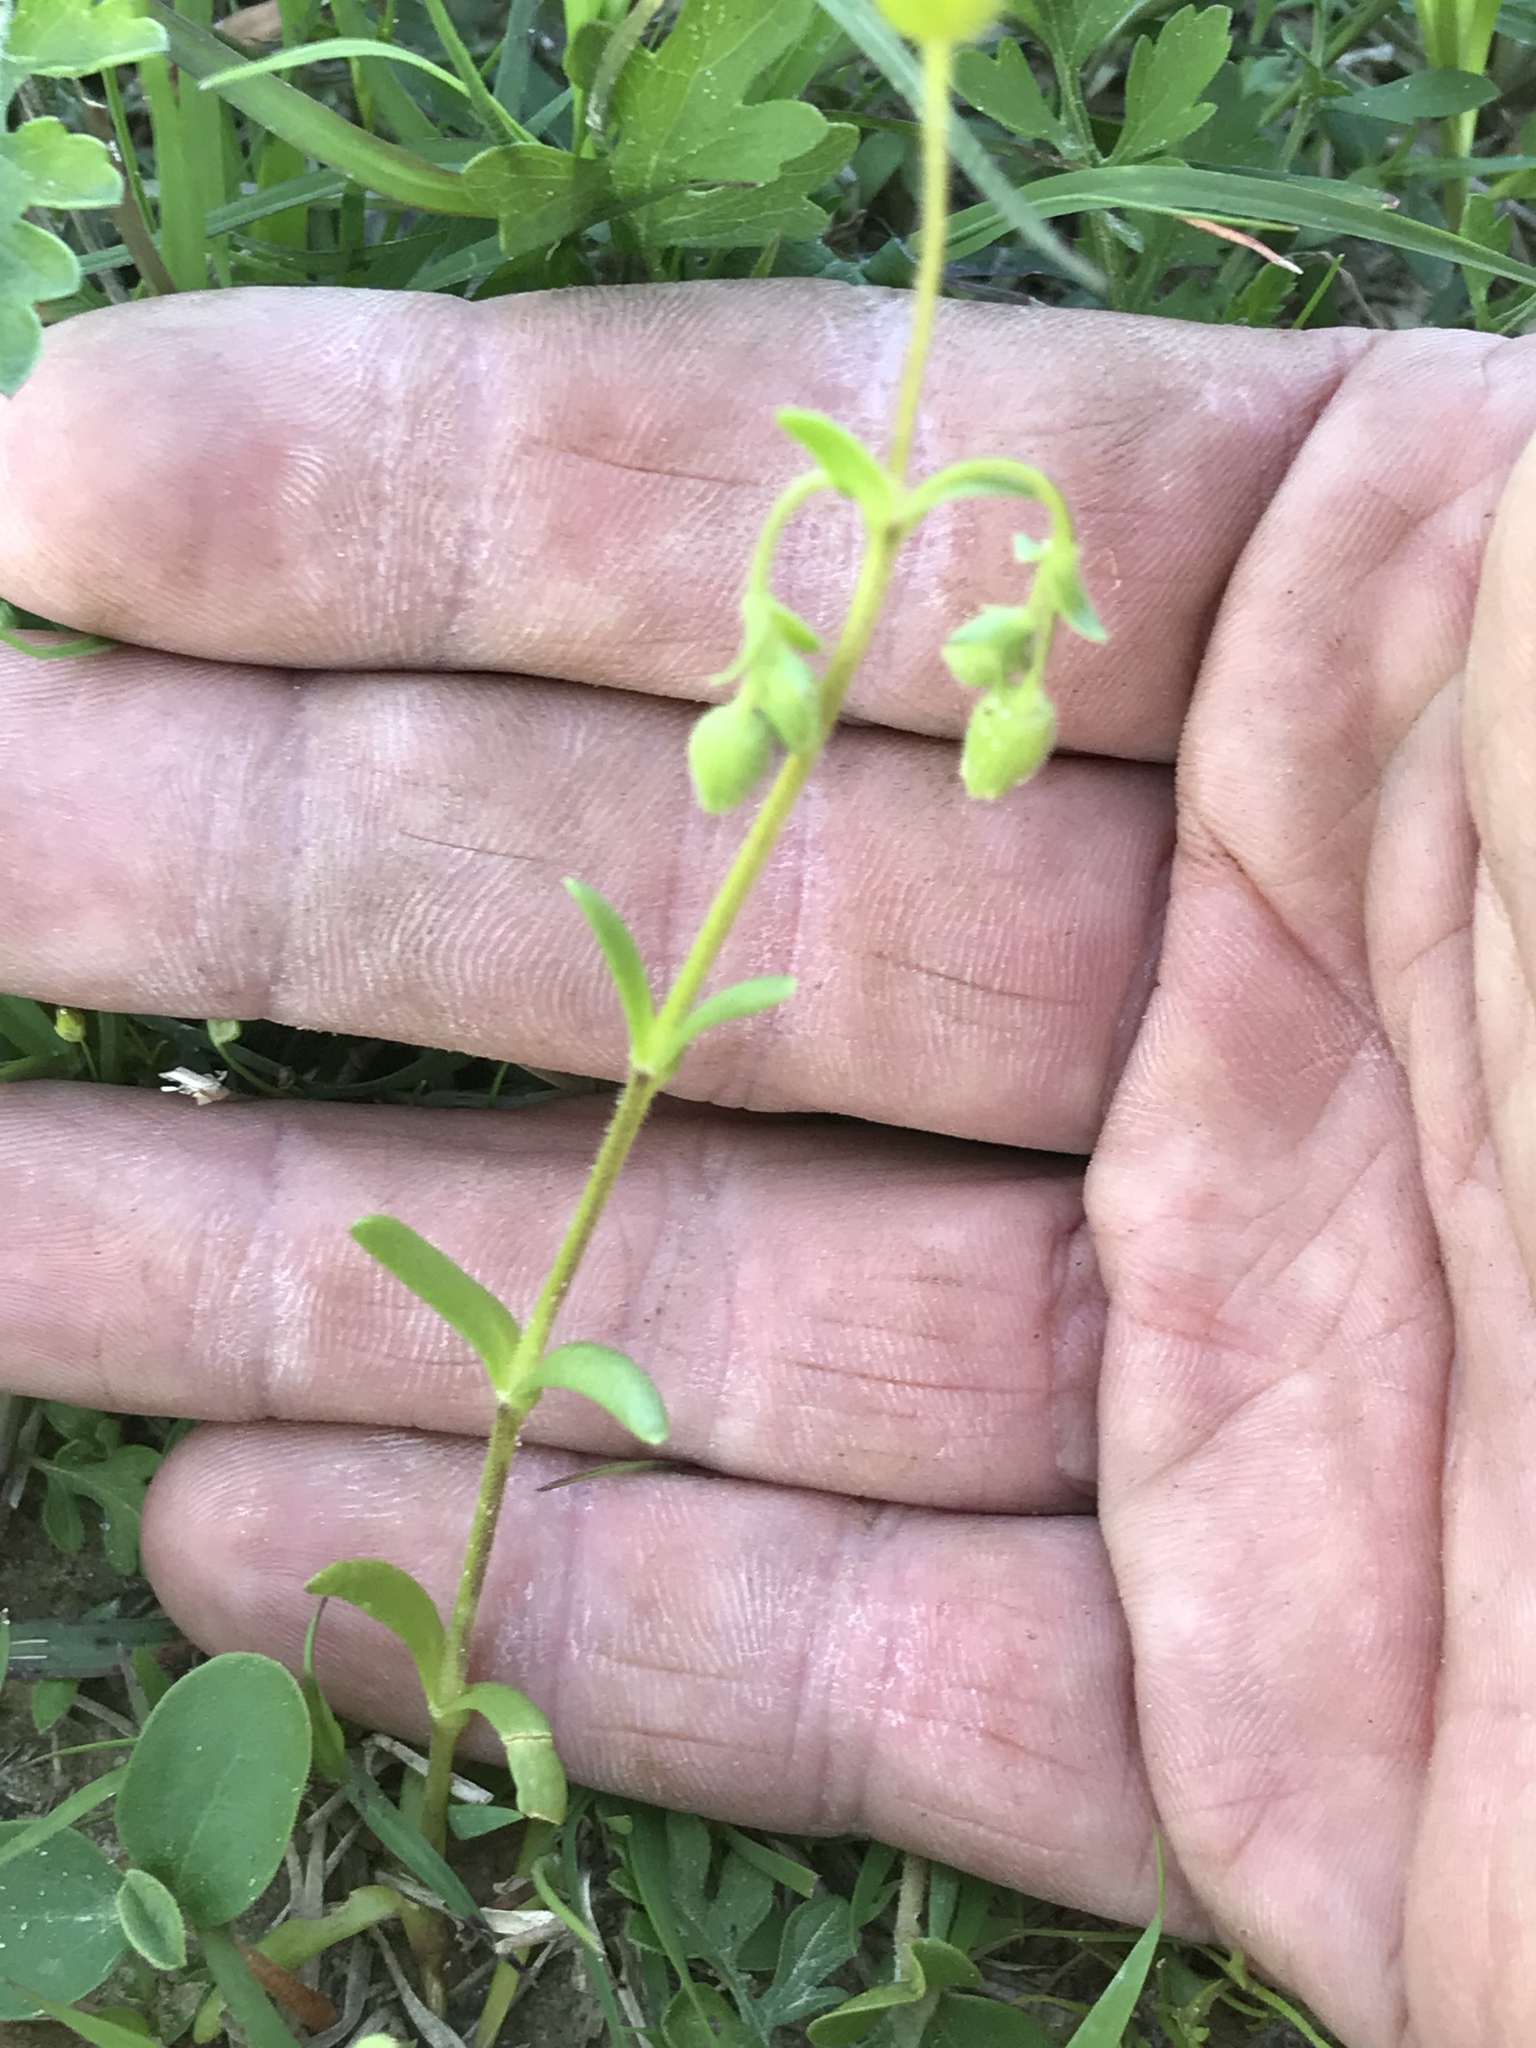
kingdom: Plantae
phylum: Tracheophyta
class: Magnoliopsida
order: Caryophyllales
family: Caryophyllaceae
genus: Geocarpon
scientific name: Geocarpon nuttallii
